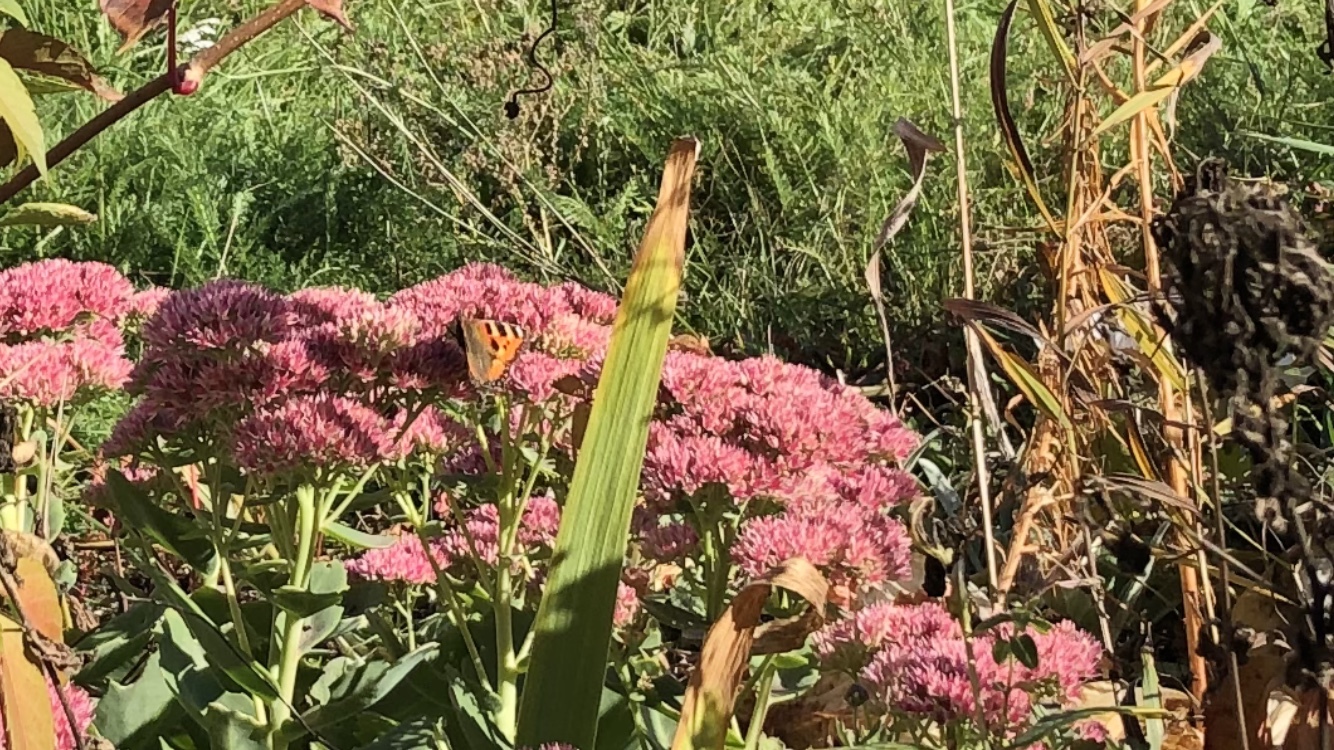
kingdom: Animalia
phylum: Arthropoda
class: Insecta
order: Lepidoptera
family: Nymphalidae
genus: Aglais
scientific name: Aglais urticae
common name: Small tortoiseshell
